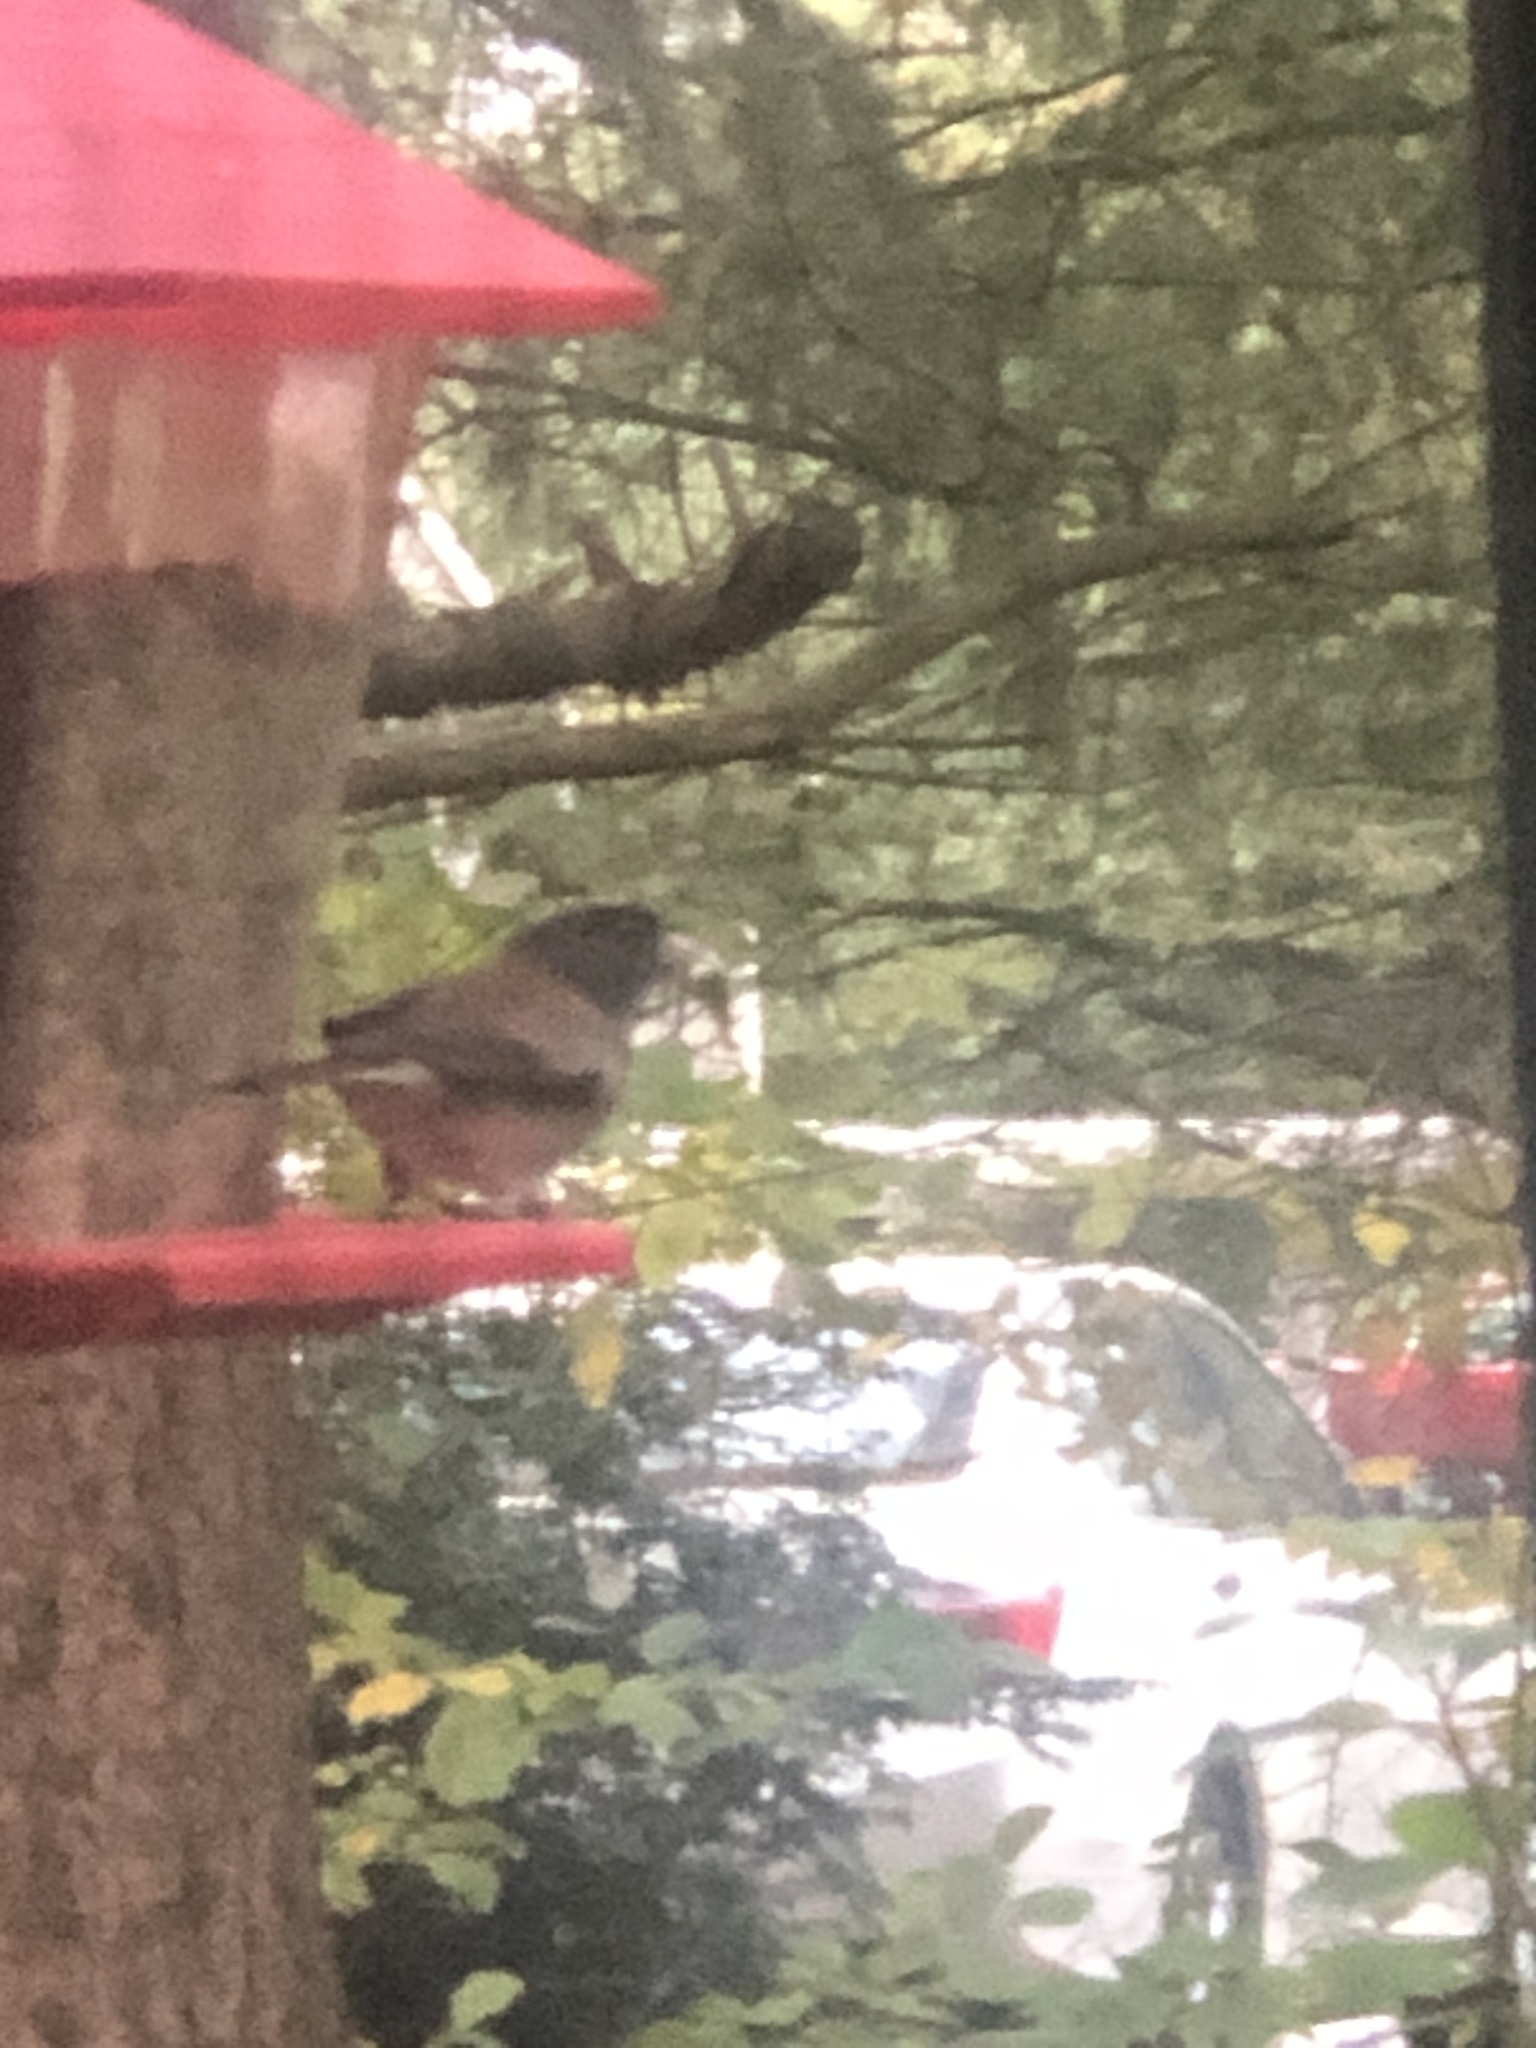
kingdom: Animalia
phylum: Chordata
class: Aves
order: Passeriformes
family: Passerellidae
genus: Junco
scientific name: Junco hyemalis
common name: Dark-eyed junco
